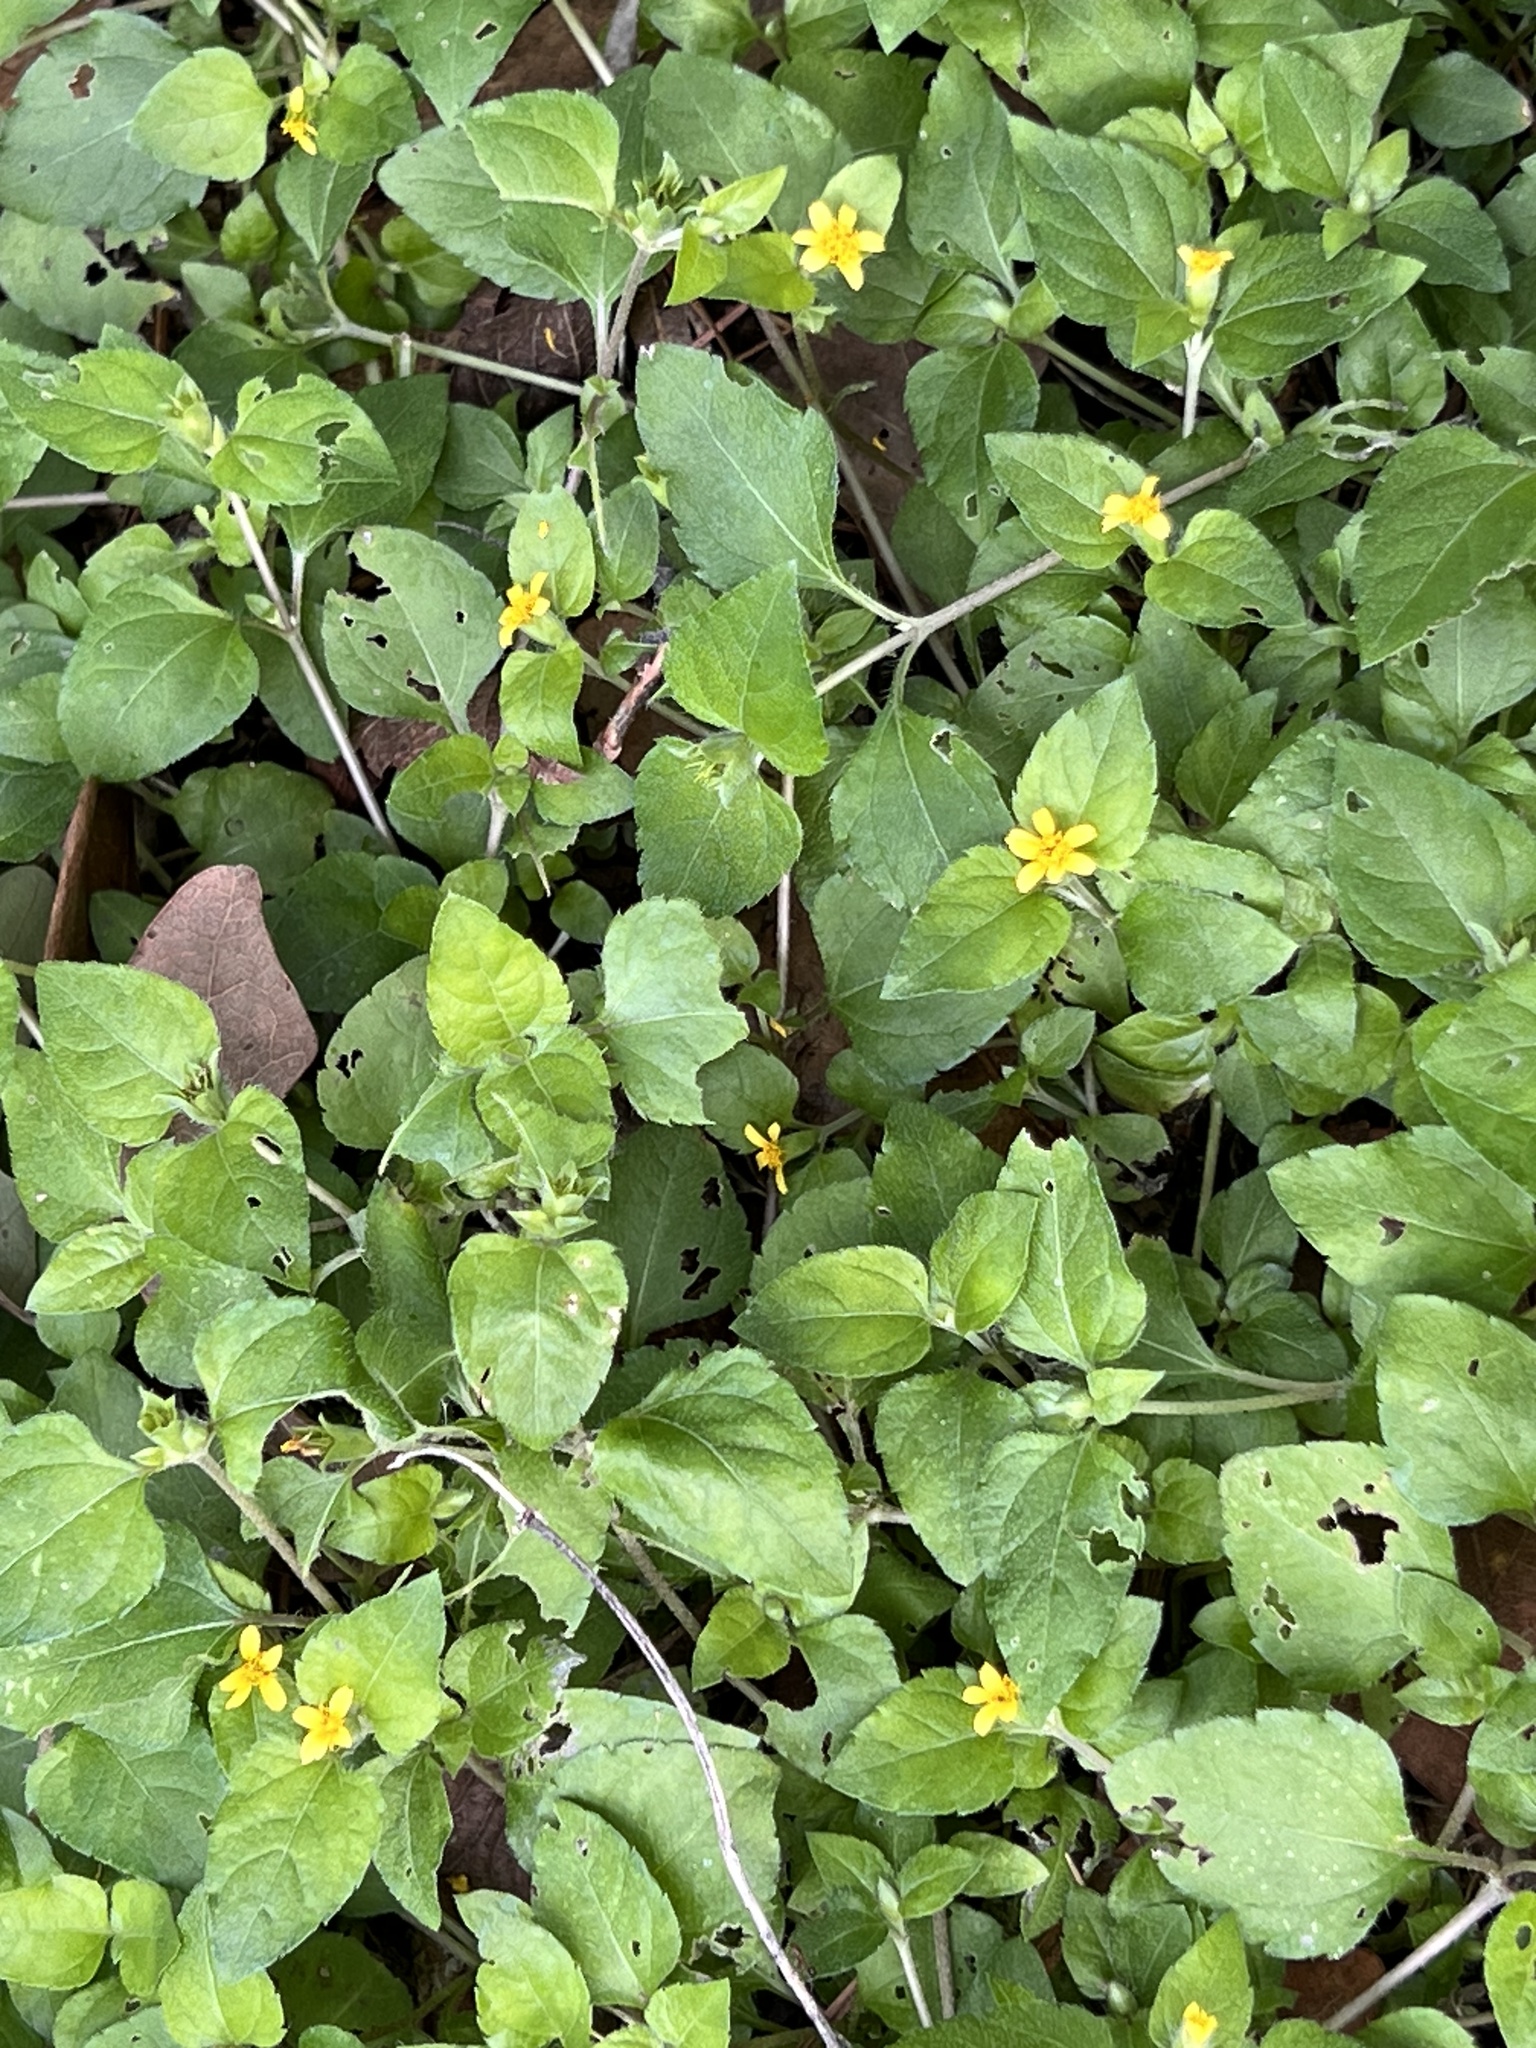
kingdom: Plantae
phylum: Tracheophyta
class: Magnoliopsida
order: Asterales
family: Asteraceae
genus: Calyptocarpus
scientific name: Calyptocarpus vialis
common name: Straggler daisy
